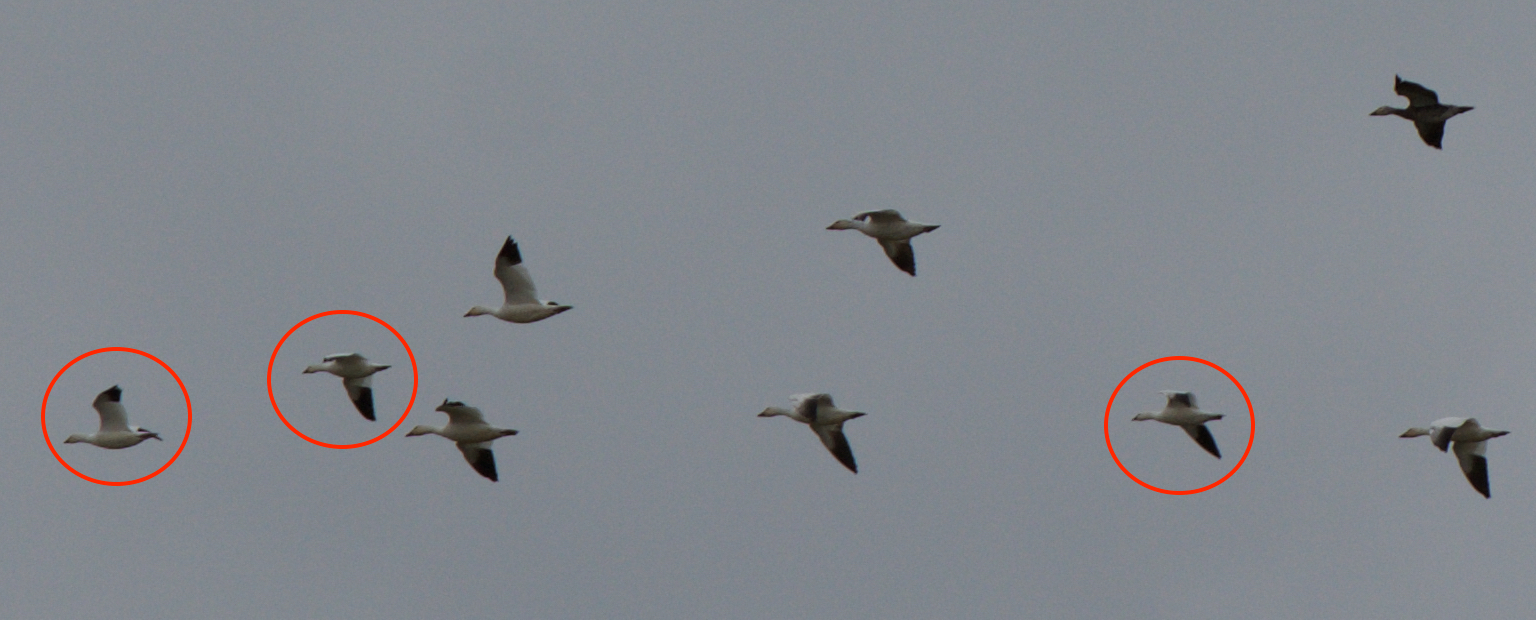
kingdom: Animalia
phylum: Chordata
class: Aves
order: Anseriformes
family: Anatidae
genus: Anser
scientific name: Anser rossii
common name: Ross's goose
